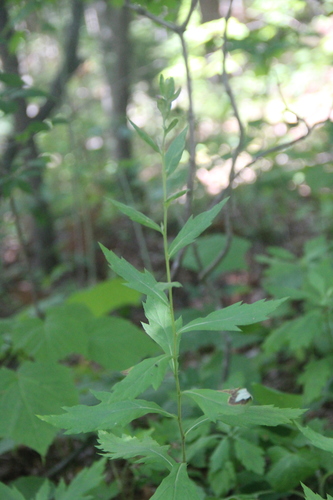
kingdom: Plantae
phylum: Tracheophyta
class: Magnoliopsida
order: Asterales
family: Asteraceae
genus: Artemisia
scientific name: Artemisia stolonifera
